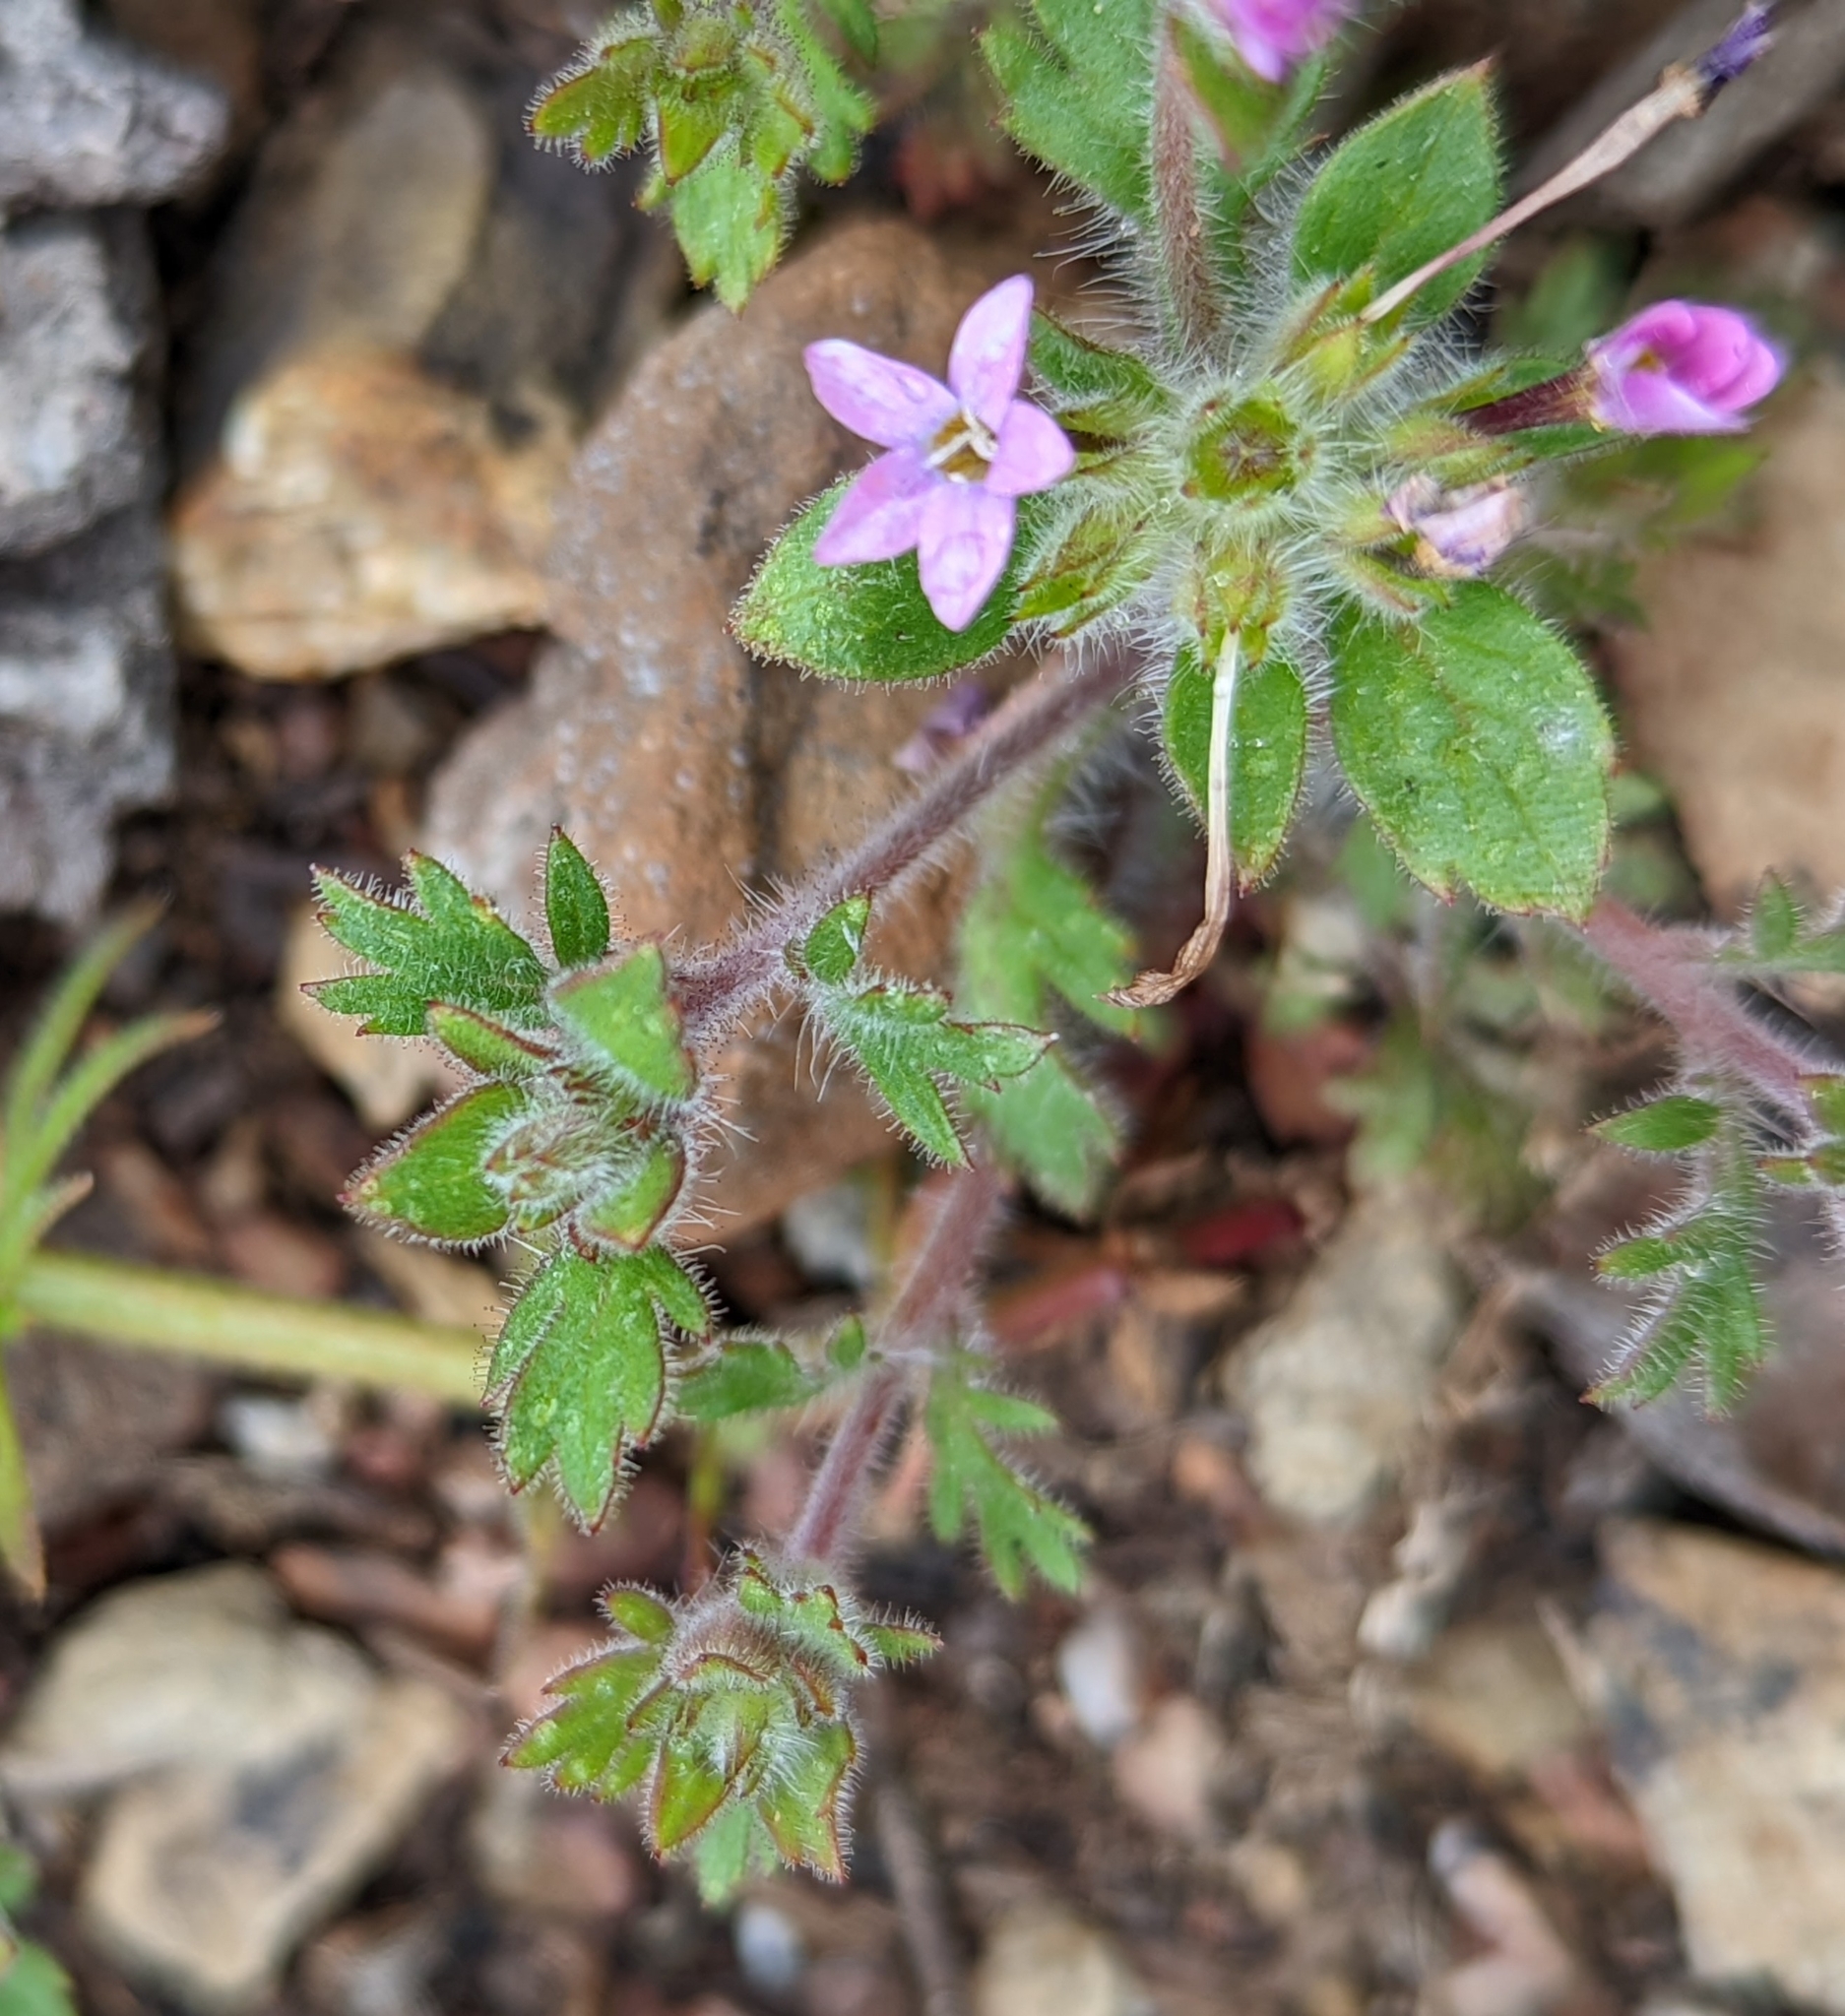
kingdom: Plantae
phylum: Tracheophyta
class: Magnoliopsida
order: Ericales
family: Polemoniaceae
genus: Collomia
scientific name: Collomia heterophylla
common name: Variable-leaved collomia
